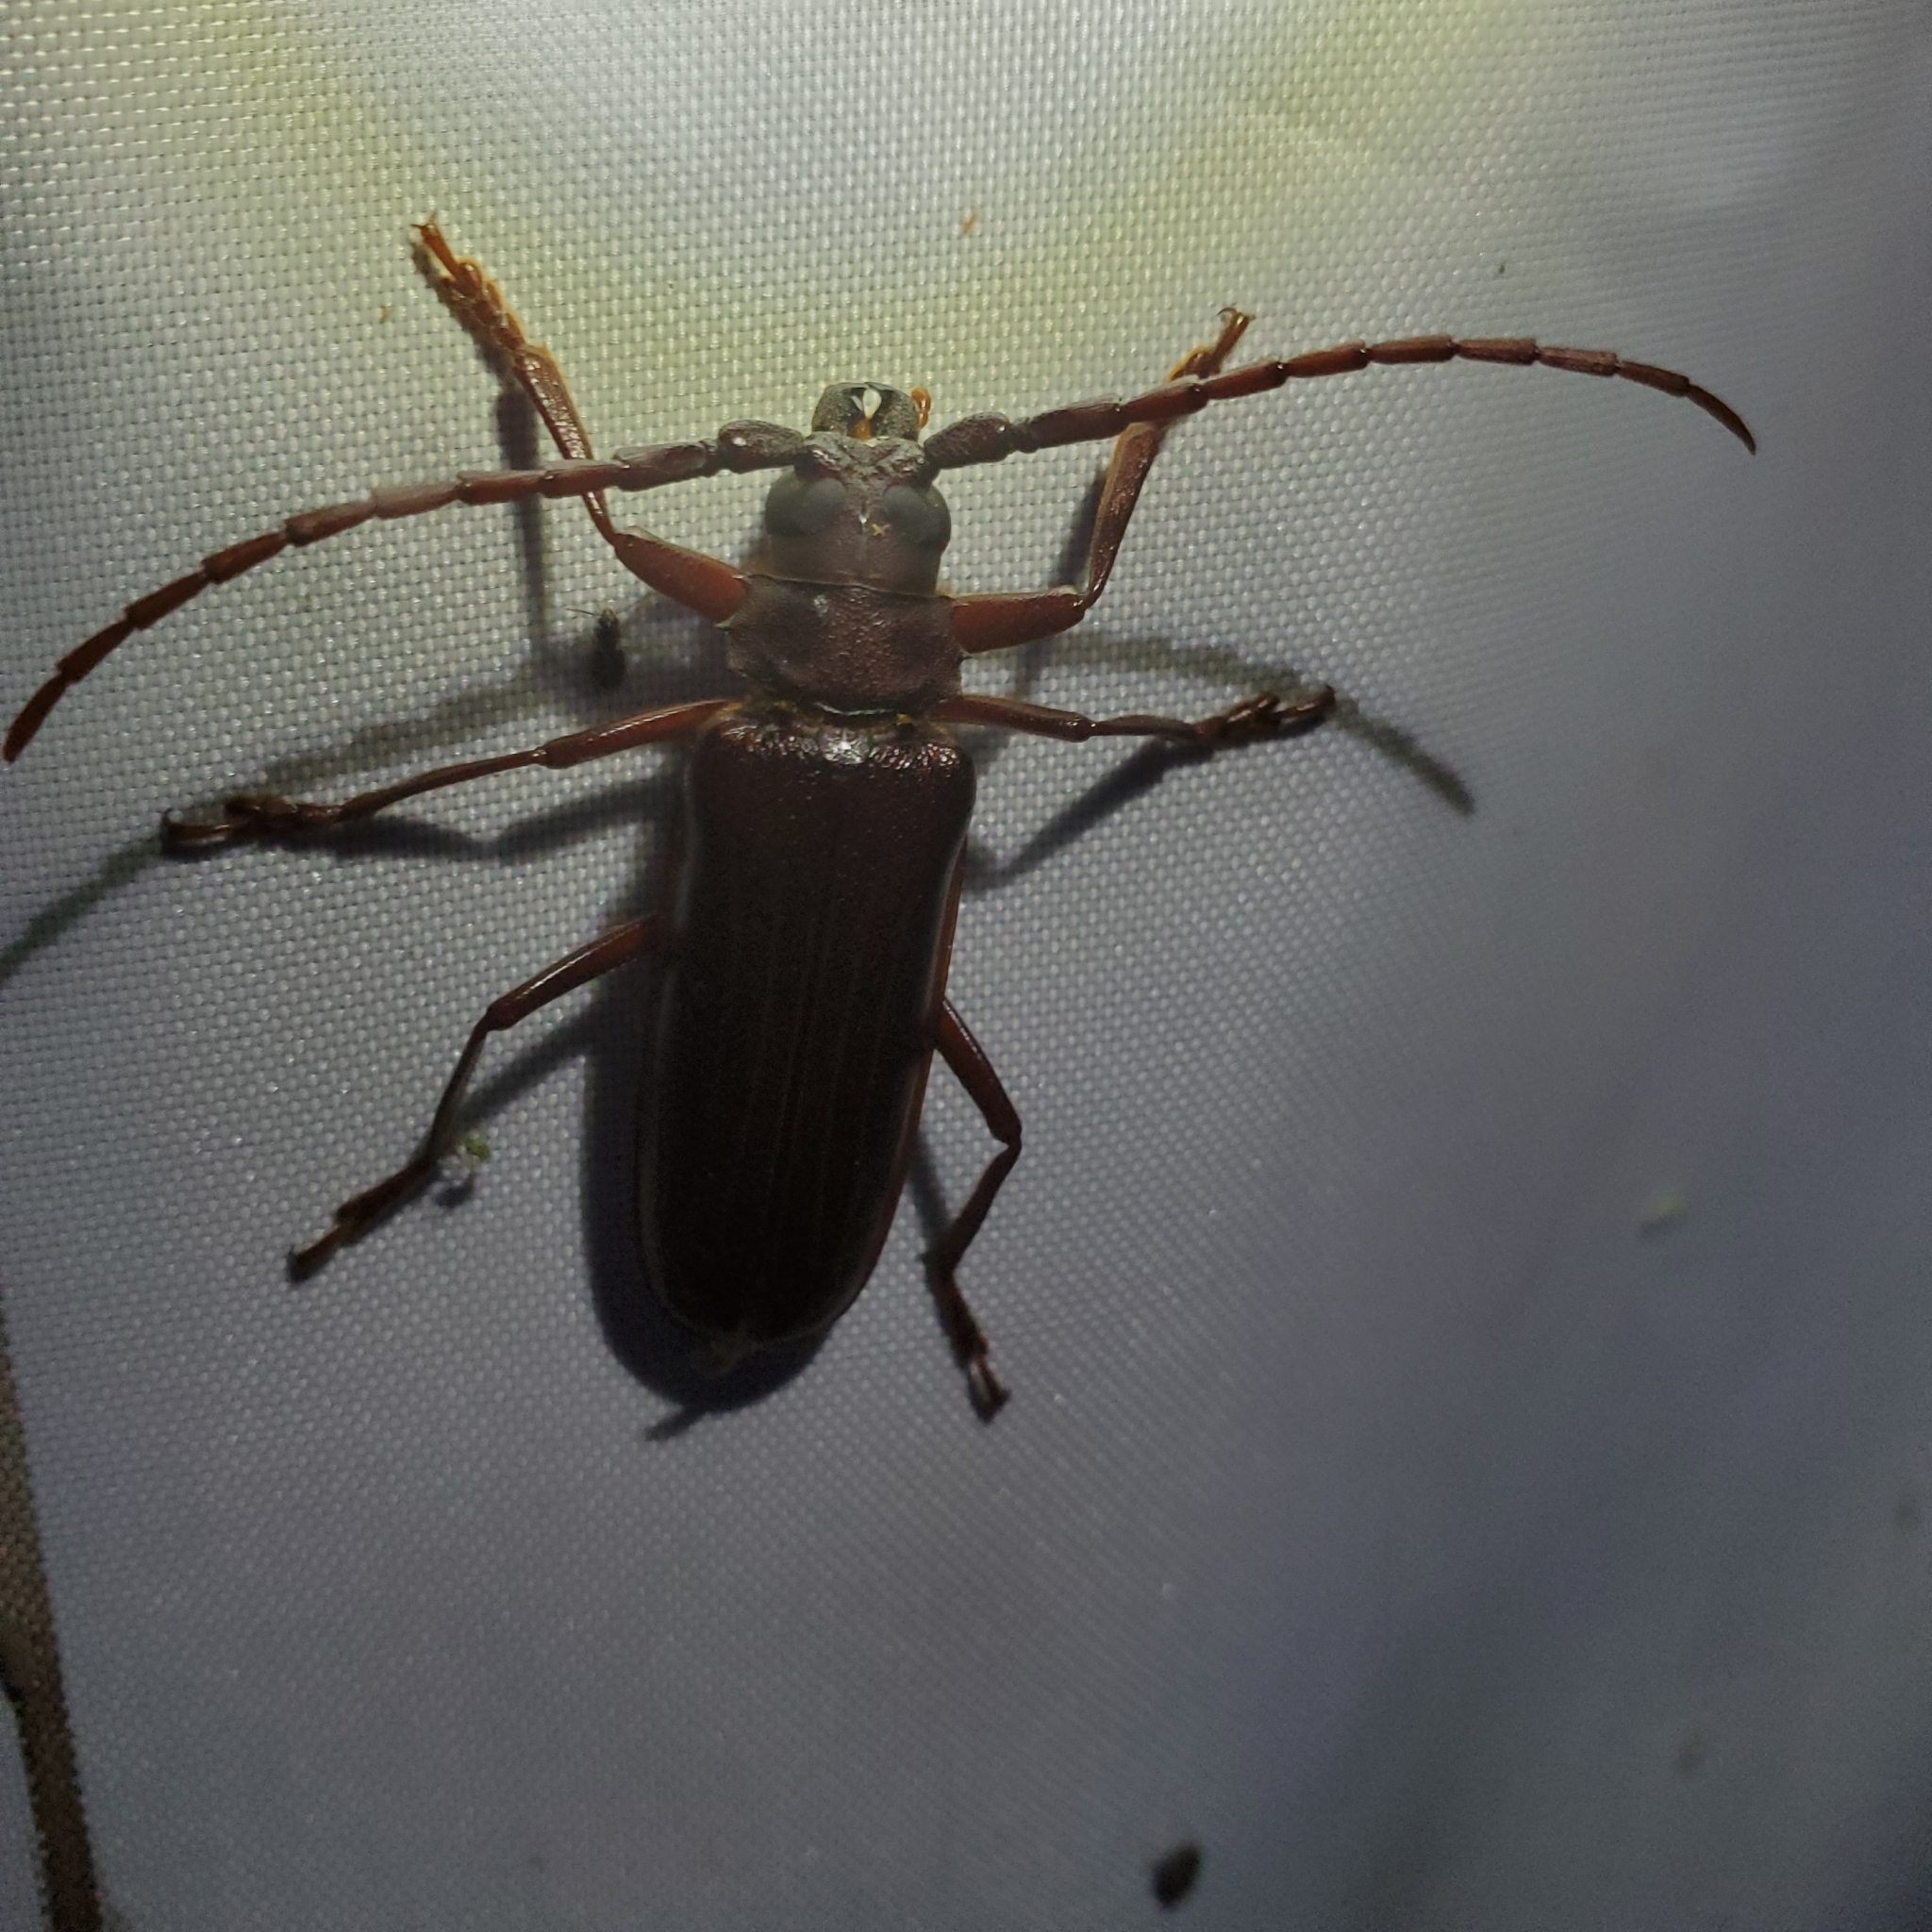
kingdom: Animalia
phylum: Arthropoda
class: Insecta
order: Coleoptera
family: Cerambycidae
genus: Orthosoma
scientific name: Orthosoma brunneum
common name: Brown prionid beetle
